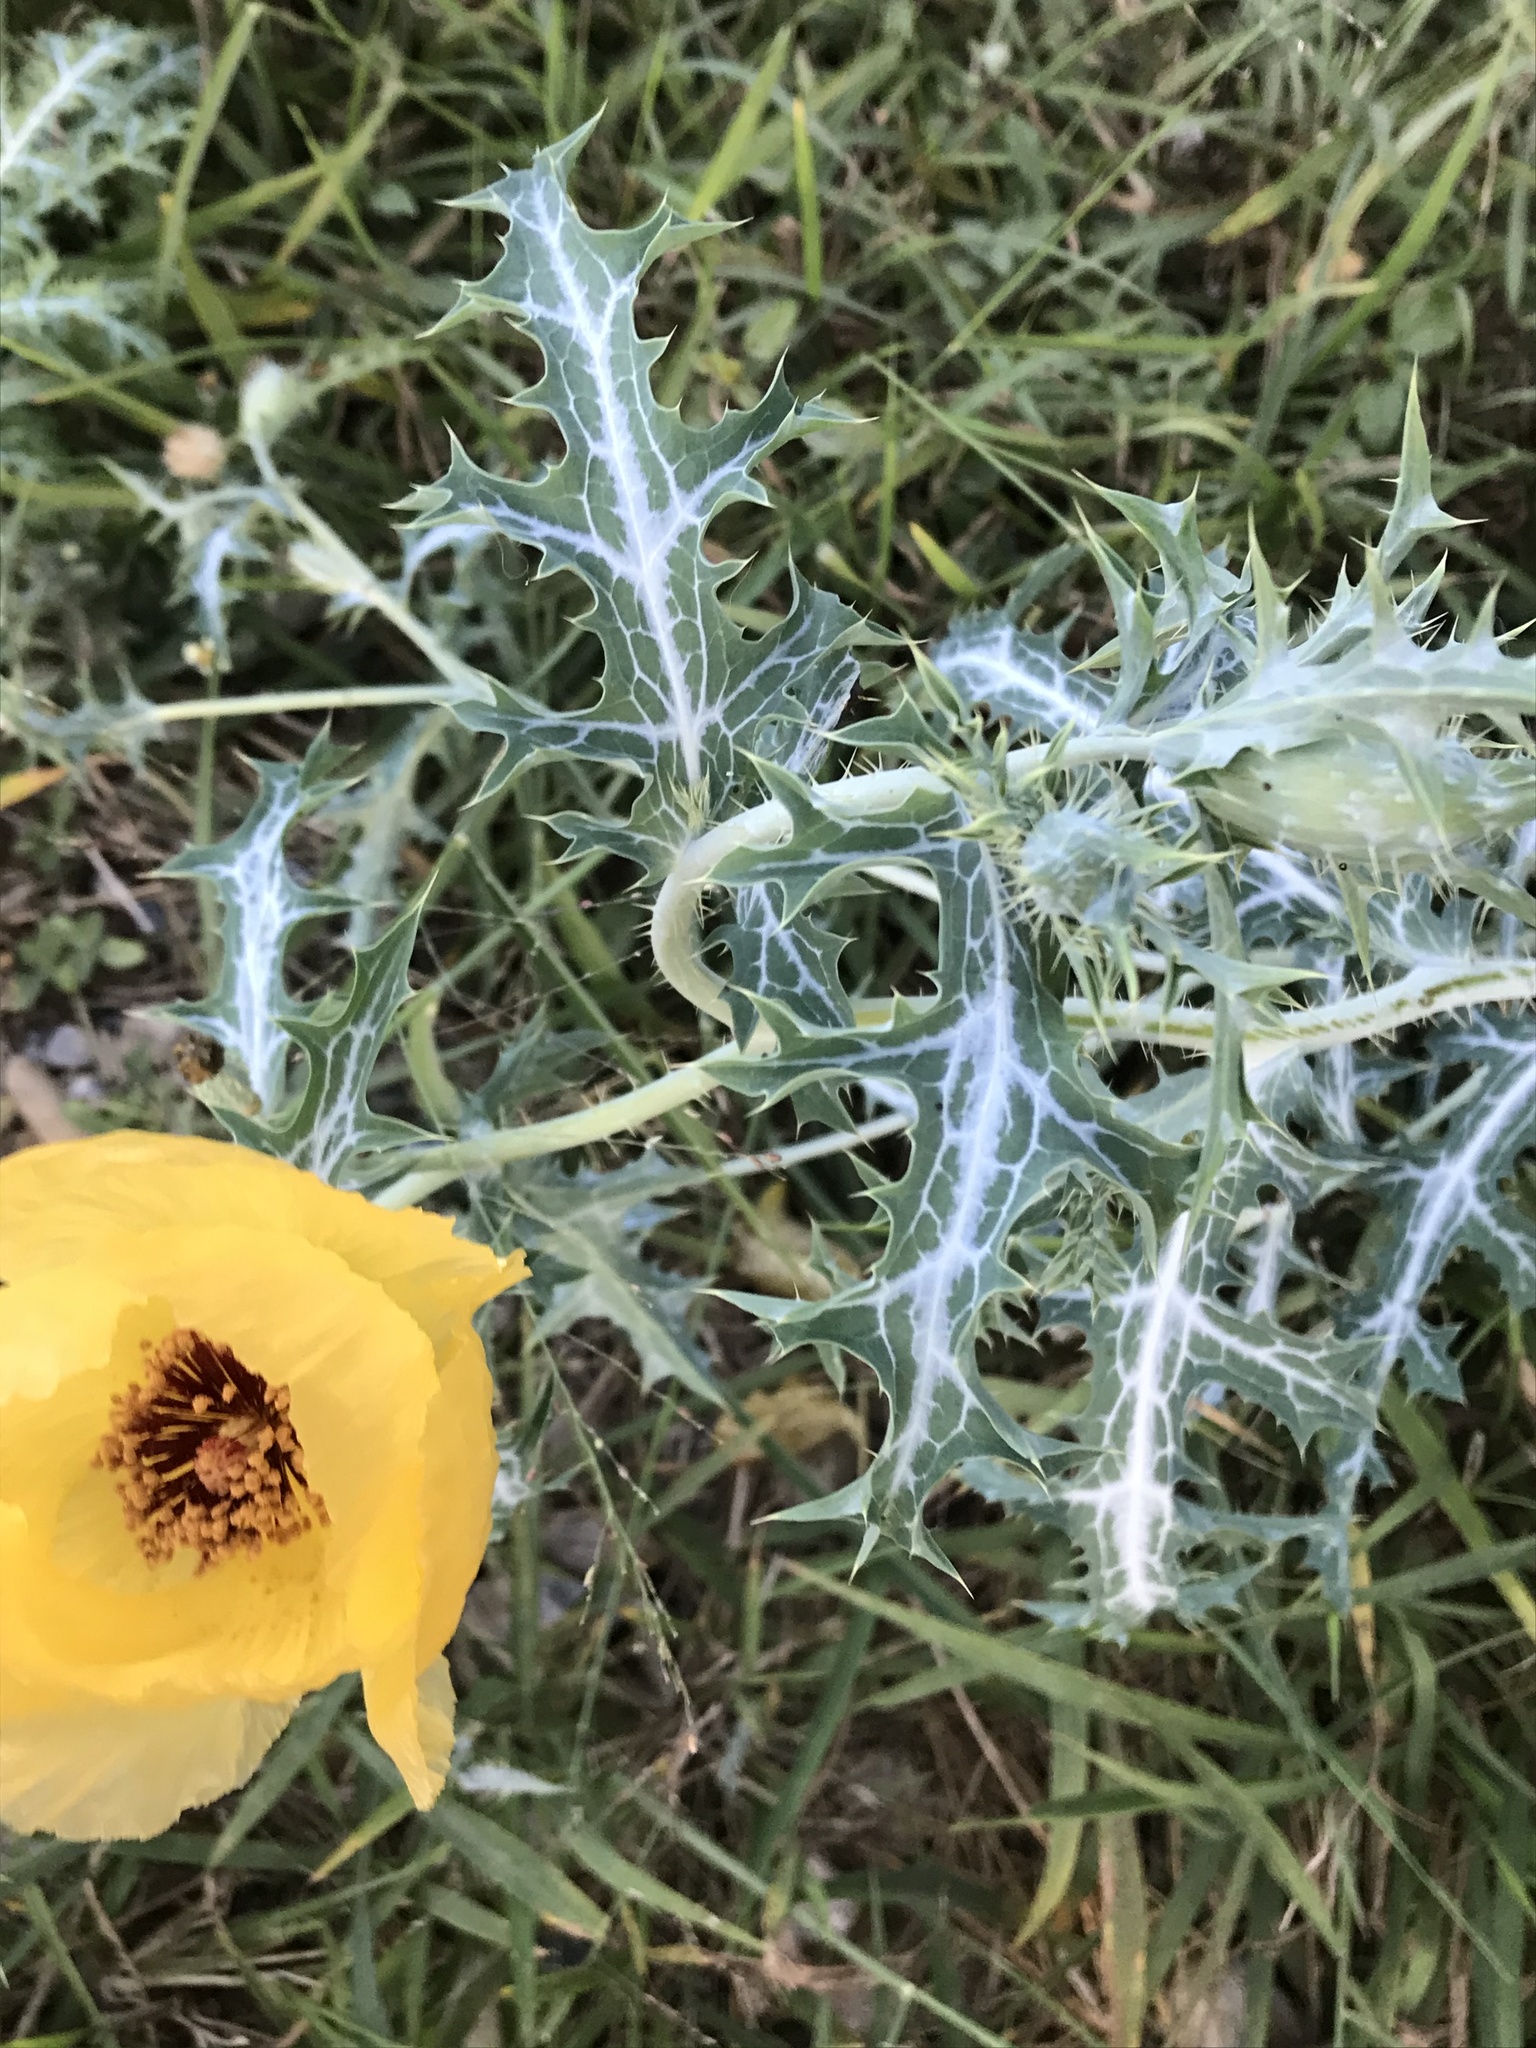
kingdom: Plantae
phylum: Tracheophyta
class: Magnoliopsida
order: Ranunculales
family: Papaveraceae
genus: Argemone
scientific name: Argemone aenea
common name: Golden prickly-poppy
